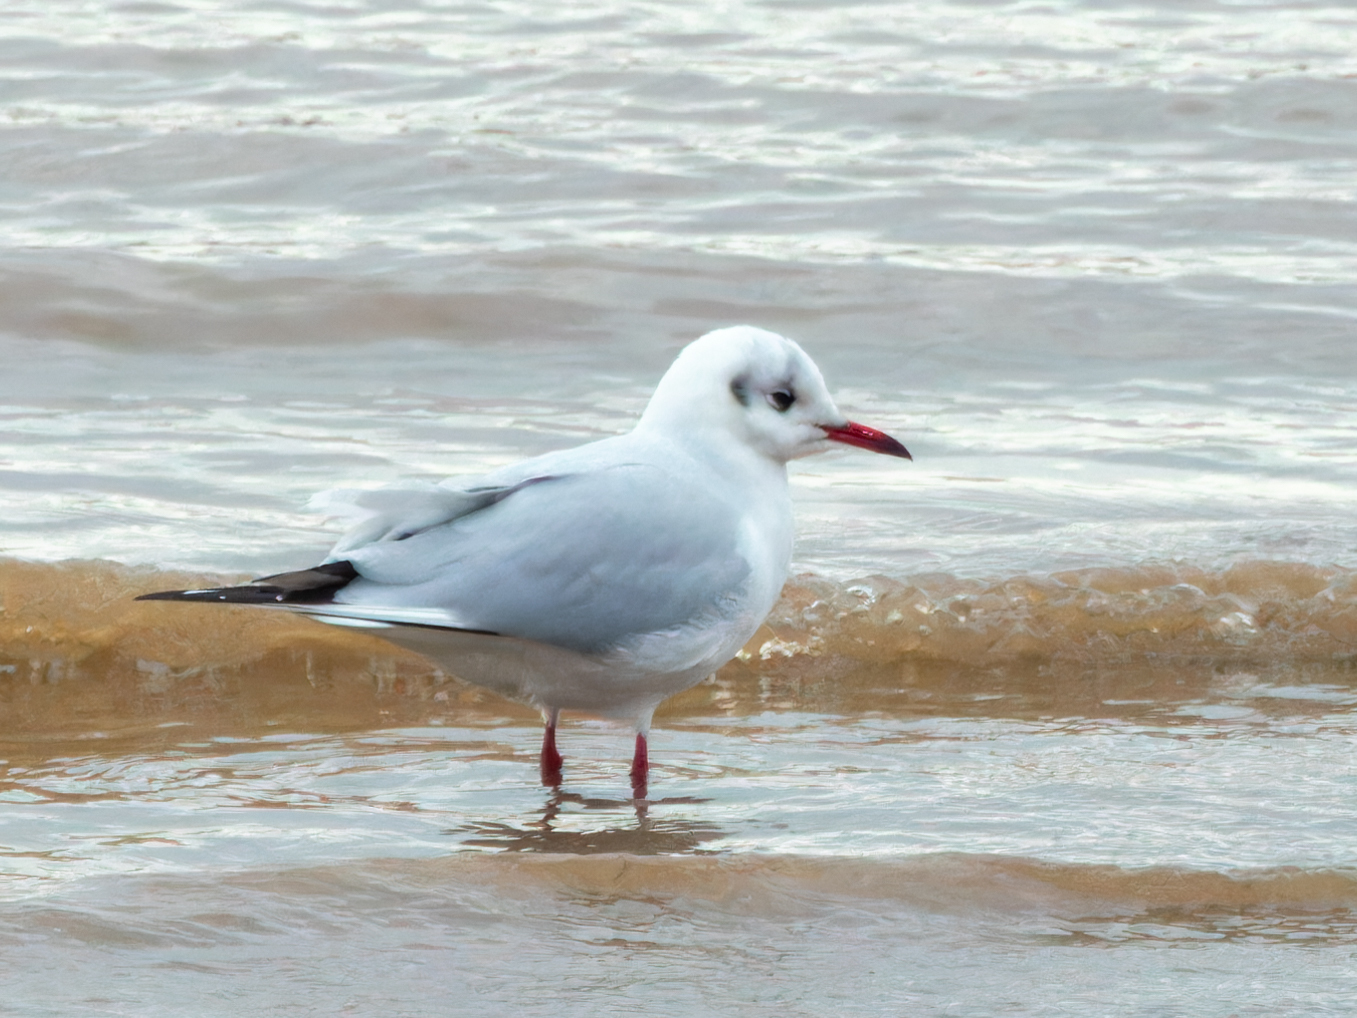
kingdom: Animalia
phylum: Chordata
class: Aves
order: Charadriiformes
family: Laridae
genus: Chroicocephalus
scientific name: Chroicocephalus ridibundus
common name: Black-headed gull
